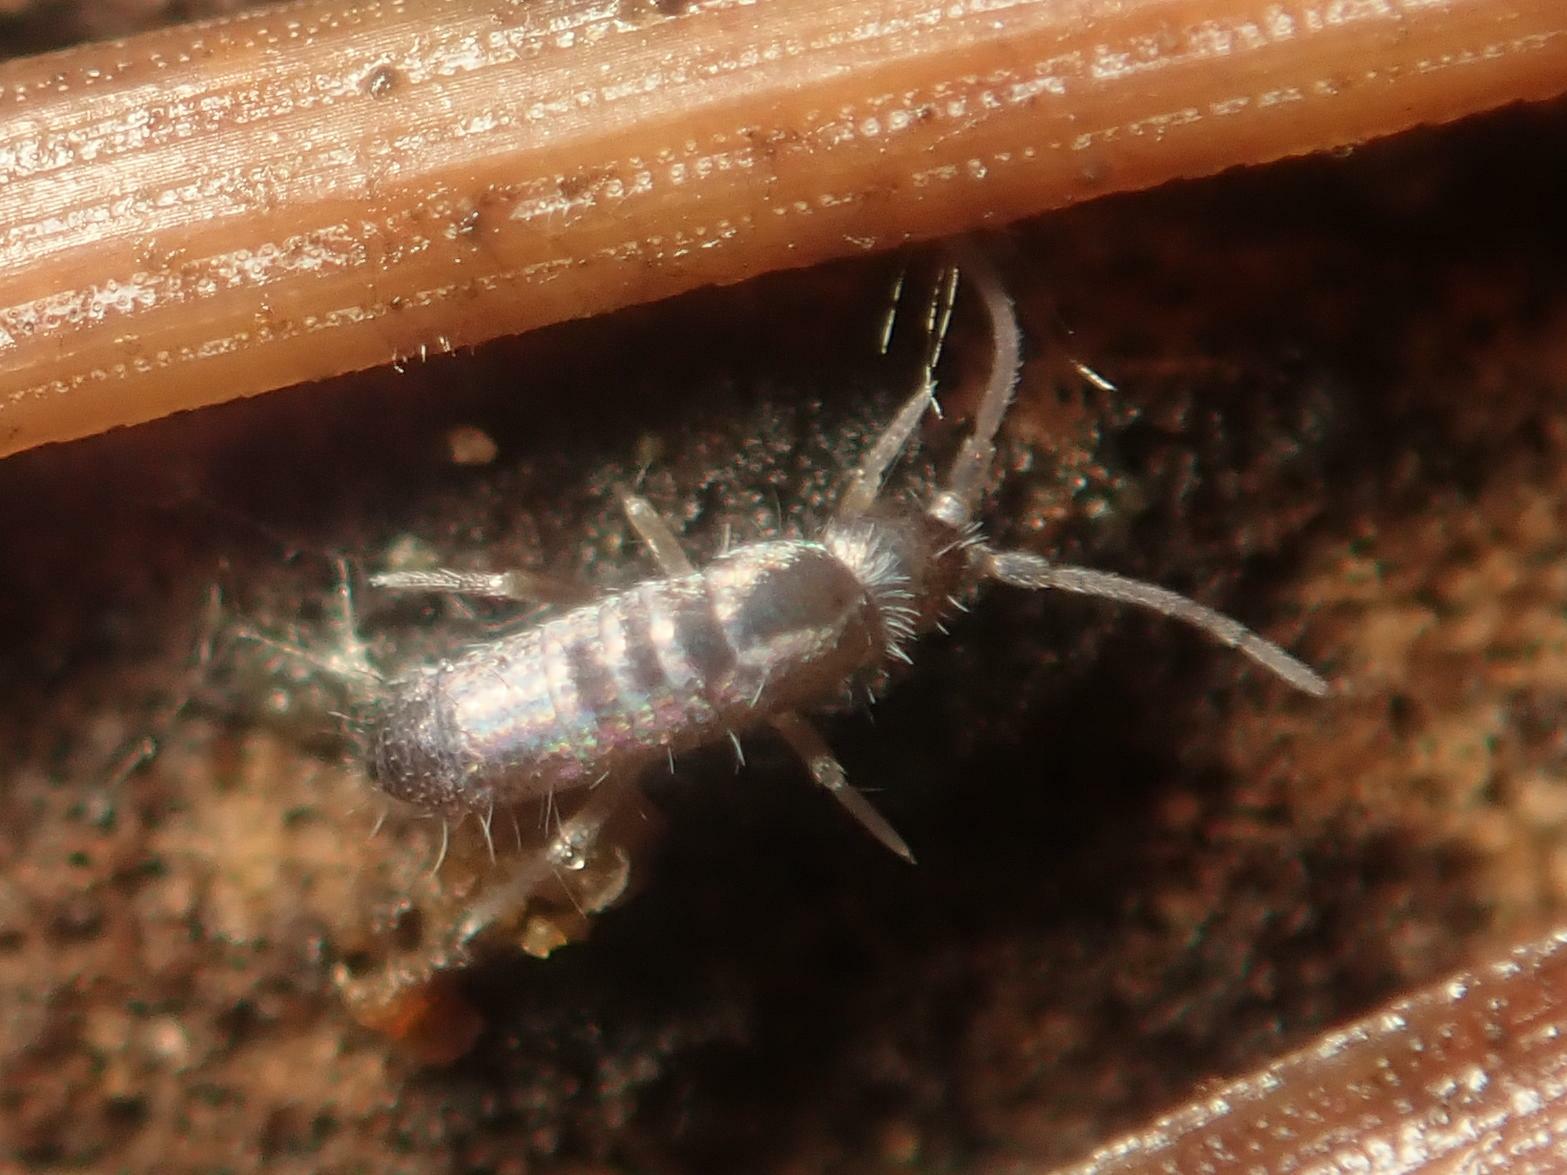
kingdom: Animalia
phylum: Arthropoda
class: Collembola
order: Entomobryomorpha
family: Tomoceridae
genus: Tomocerus
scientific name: Tomocerus vulgaris
